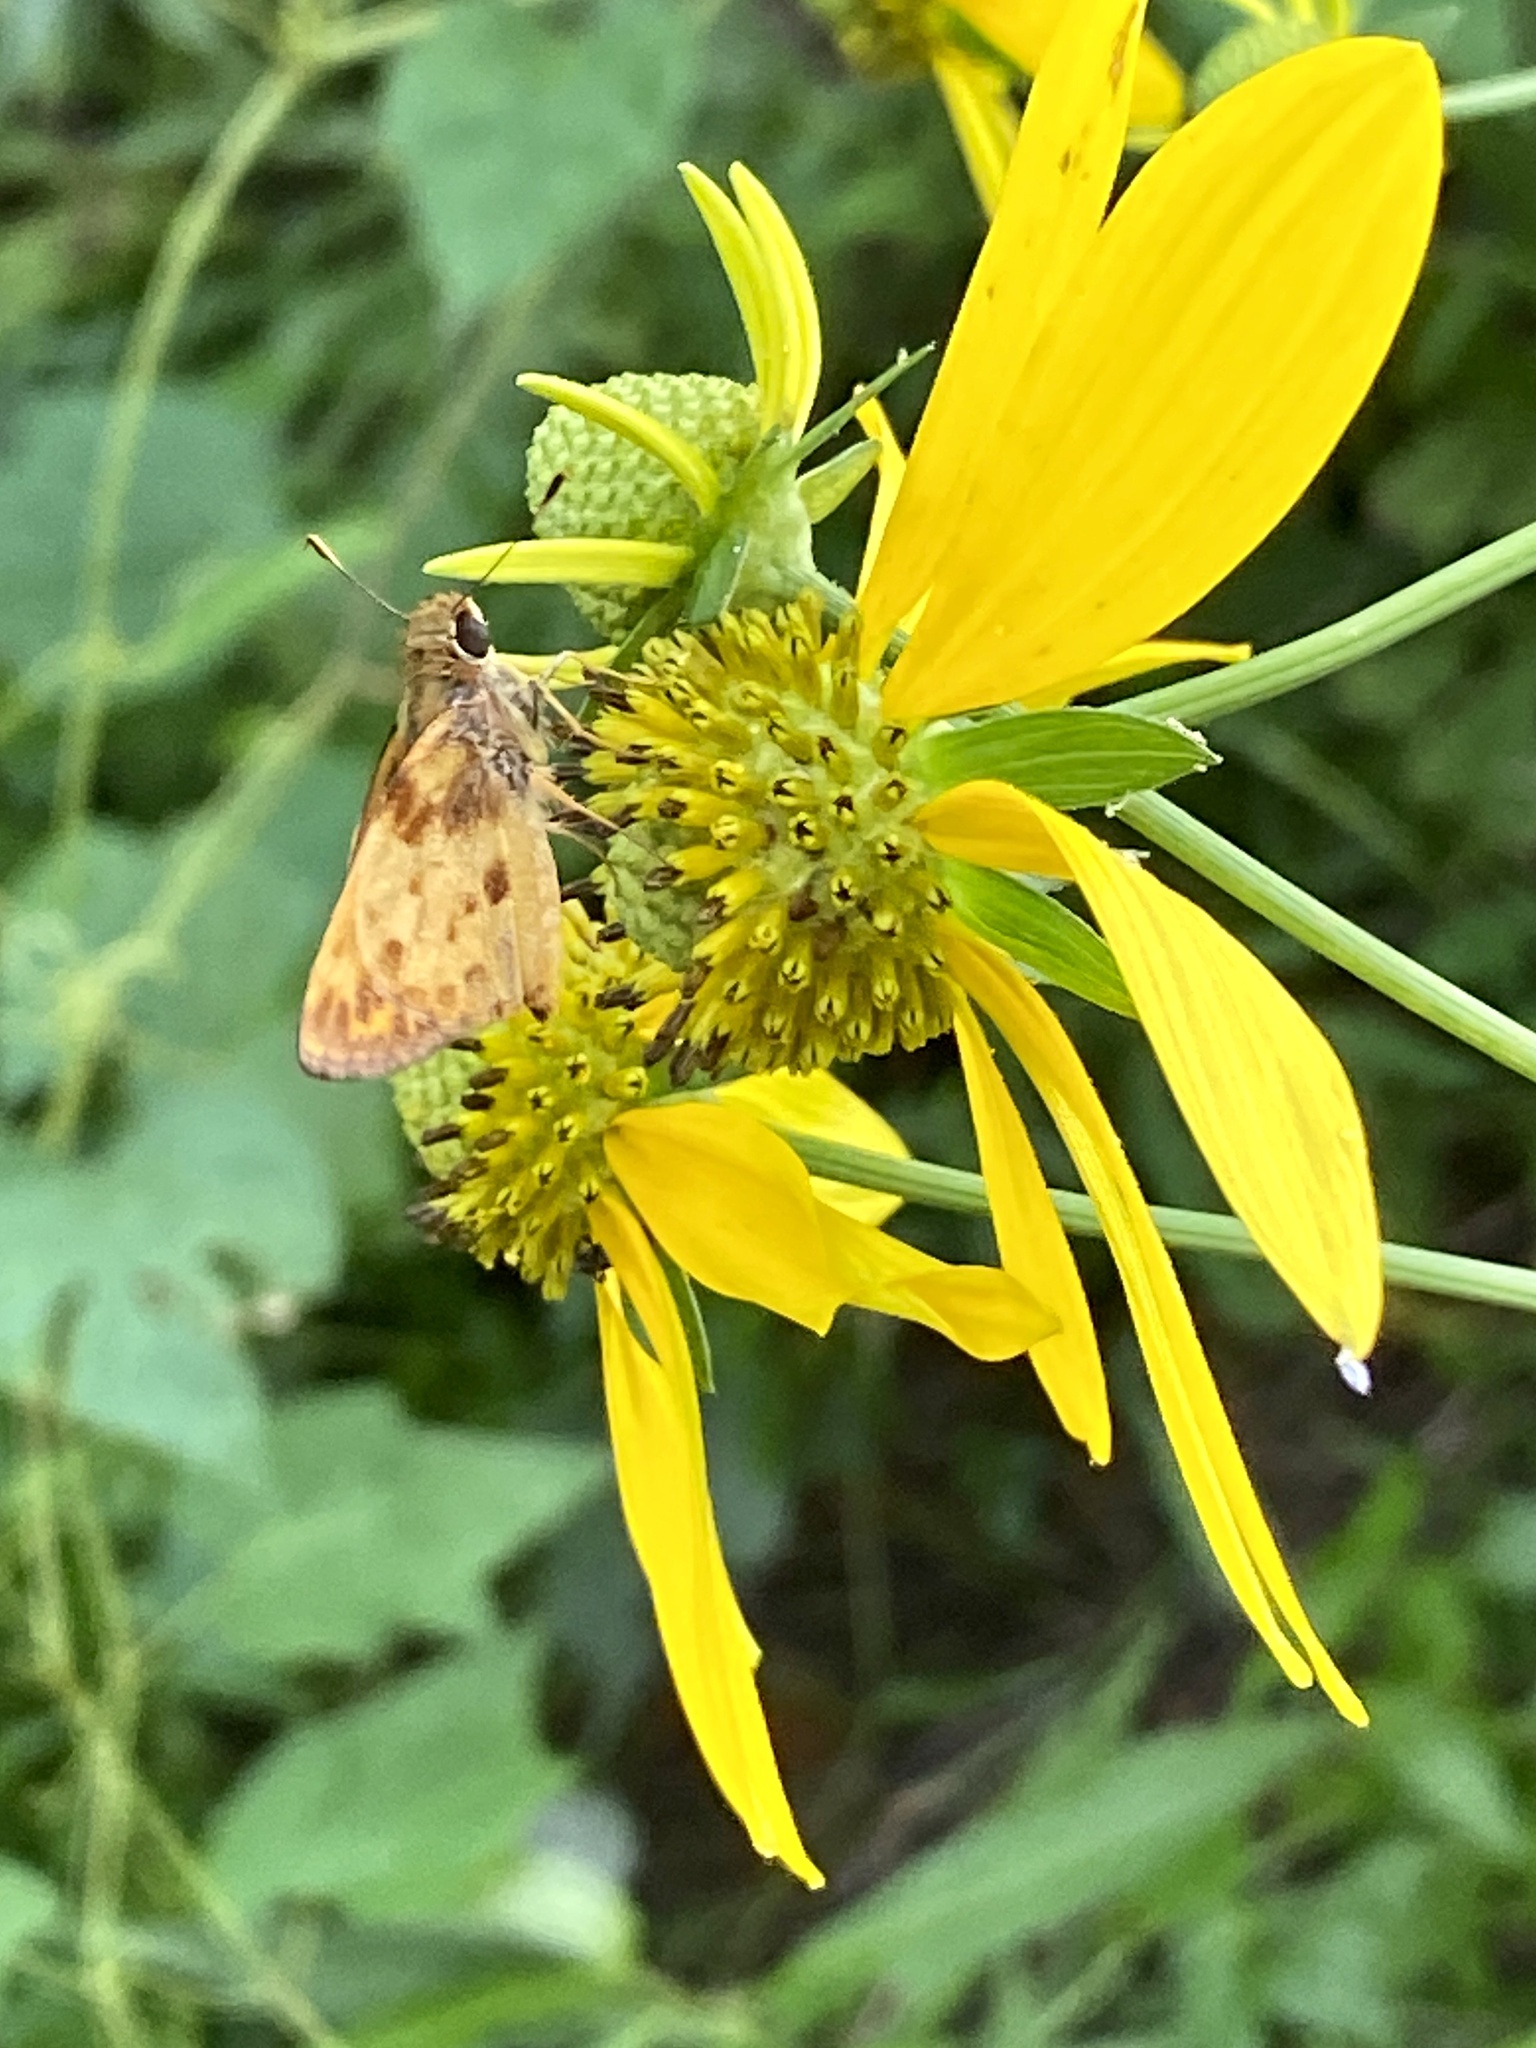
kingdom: Animalia
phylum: Arthropoda
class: Insecta
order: Lepidoptera
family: Hesperiidae
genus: Lon
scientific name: Lon zabulon
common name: Zabulon skipper
